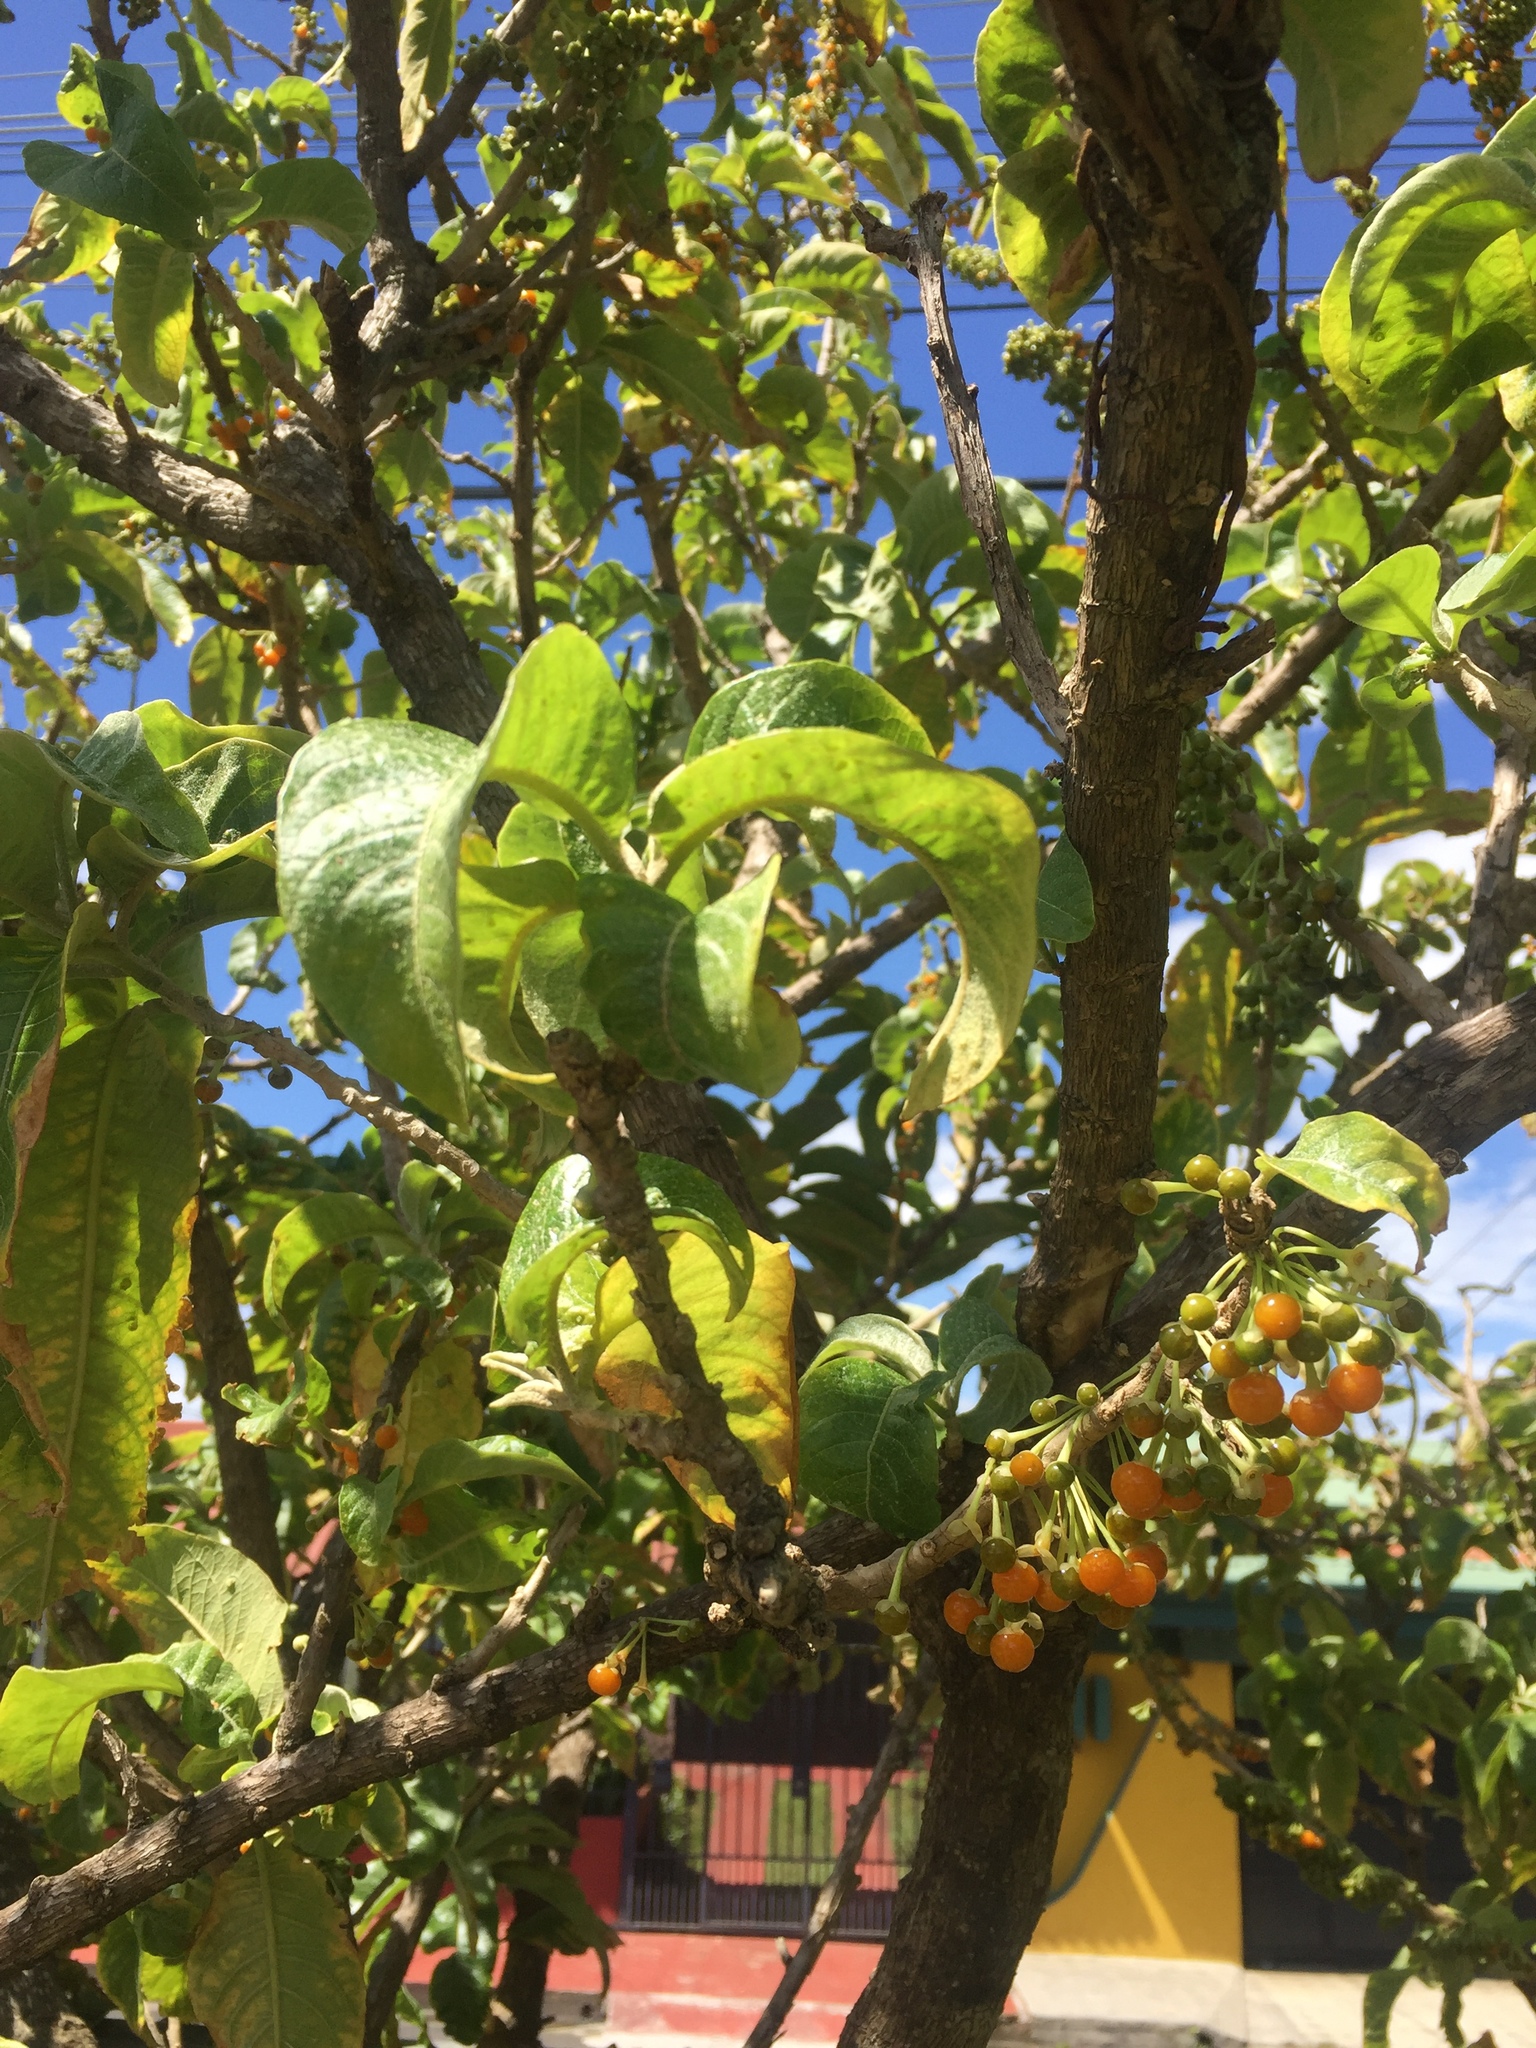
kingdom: Plantae
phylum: Tracheophyta
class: Magnoliopsida
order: Solanales
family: Solanaceae
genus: Iochroma
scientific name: Iochroma arborescens
